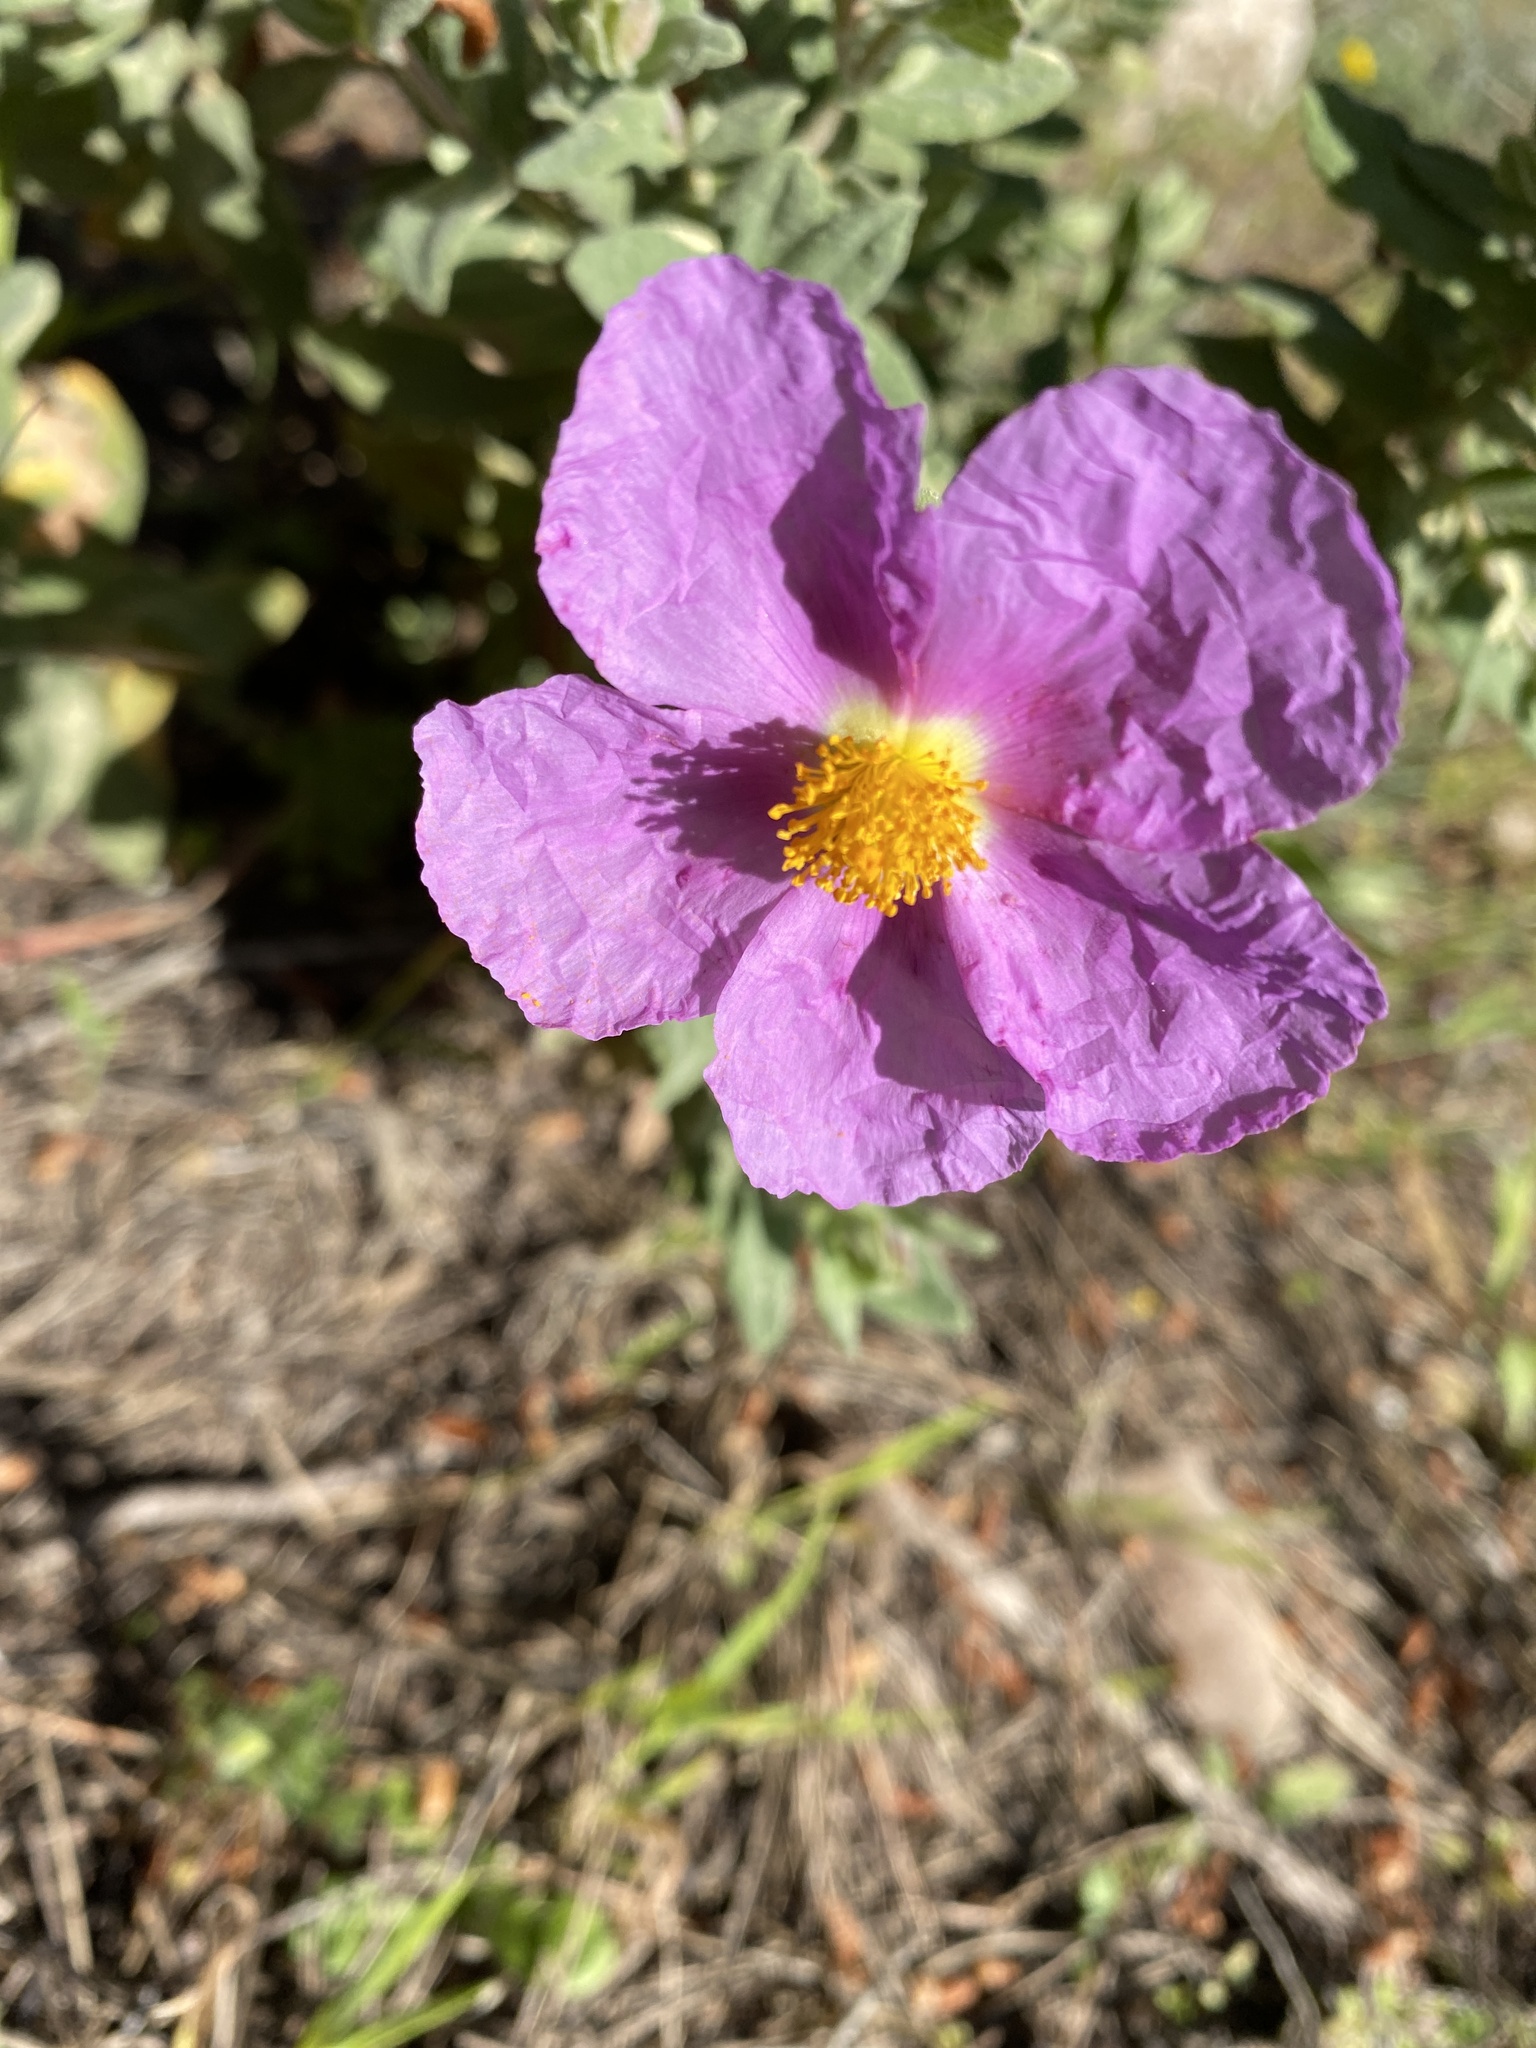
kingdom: Plantae
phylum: Tracheophyta
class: Magnoliopsida
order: Malvales
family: Cistaceae
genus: Cistus
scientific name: Cistus albidus
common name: White-leaf rock-rose
